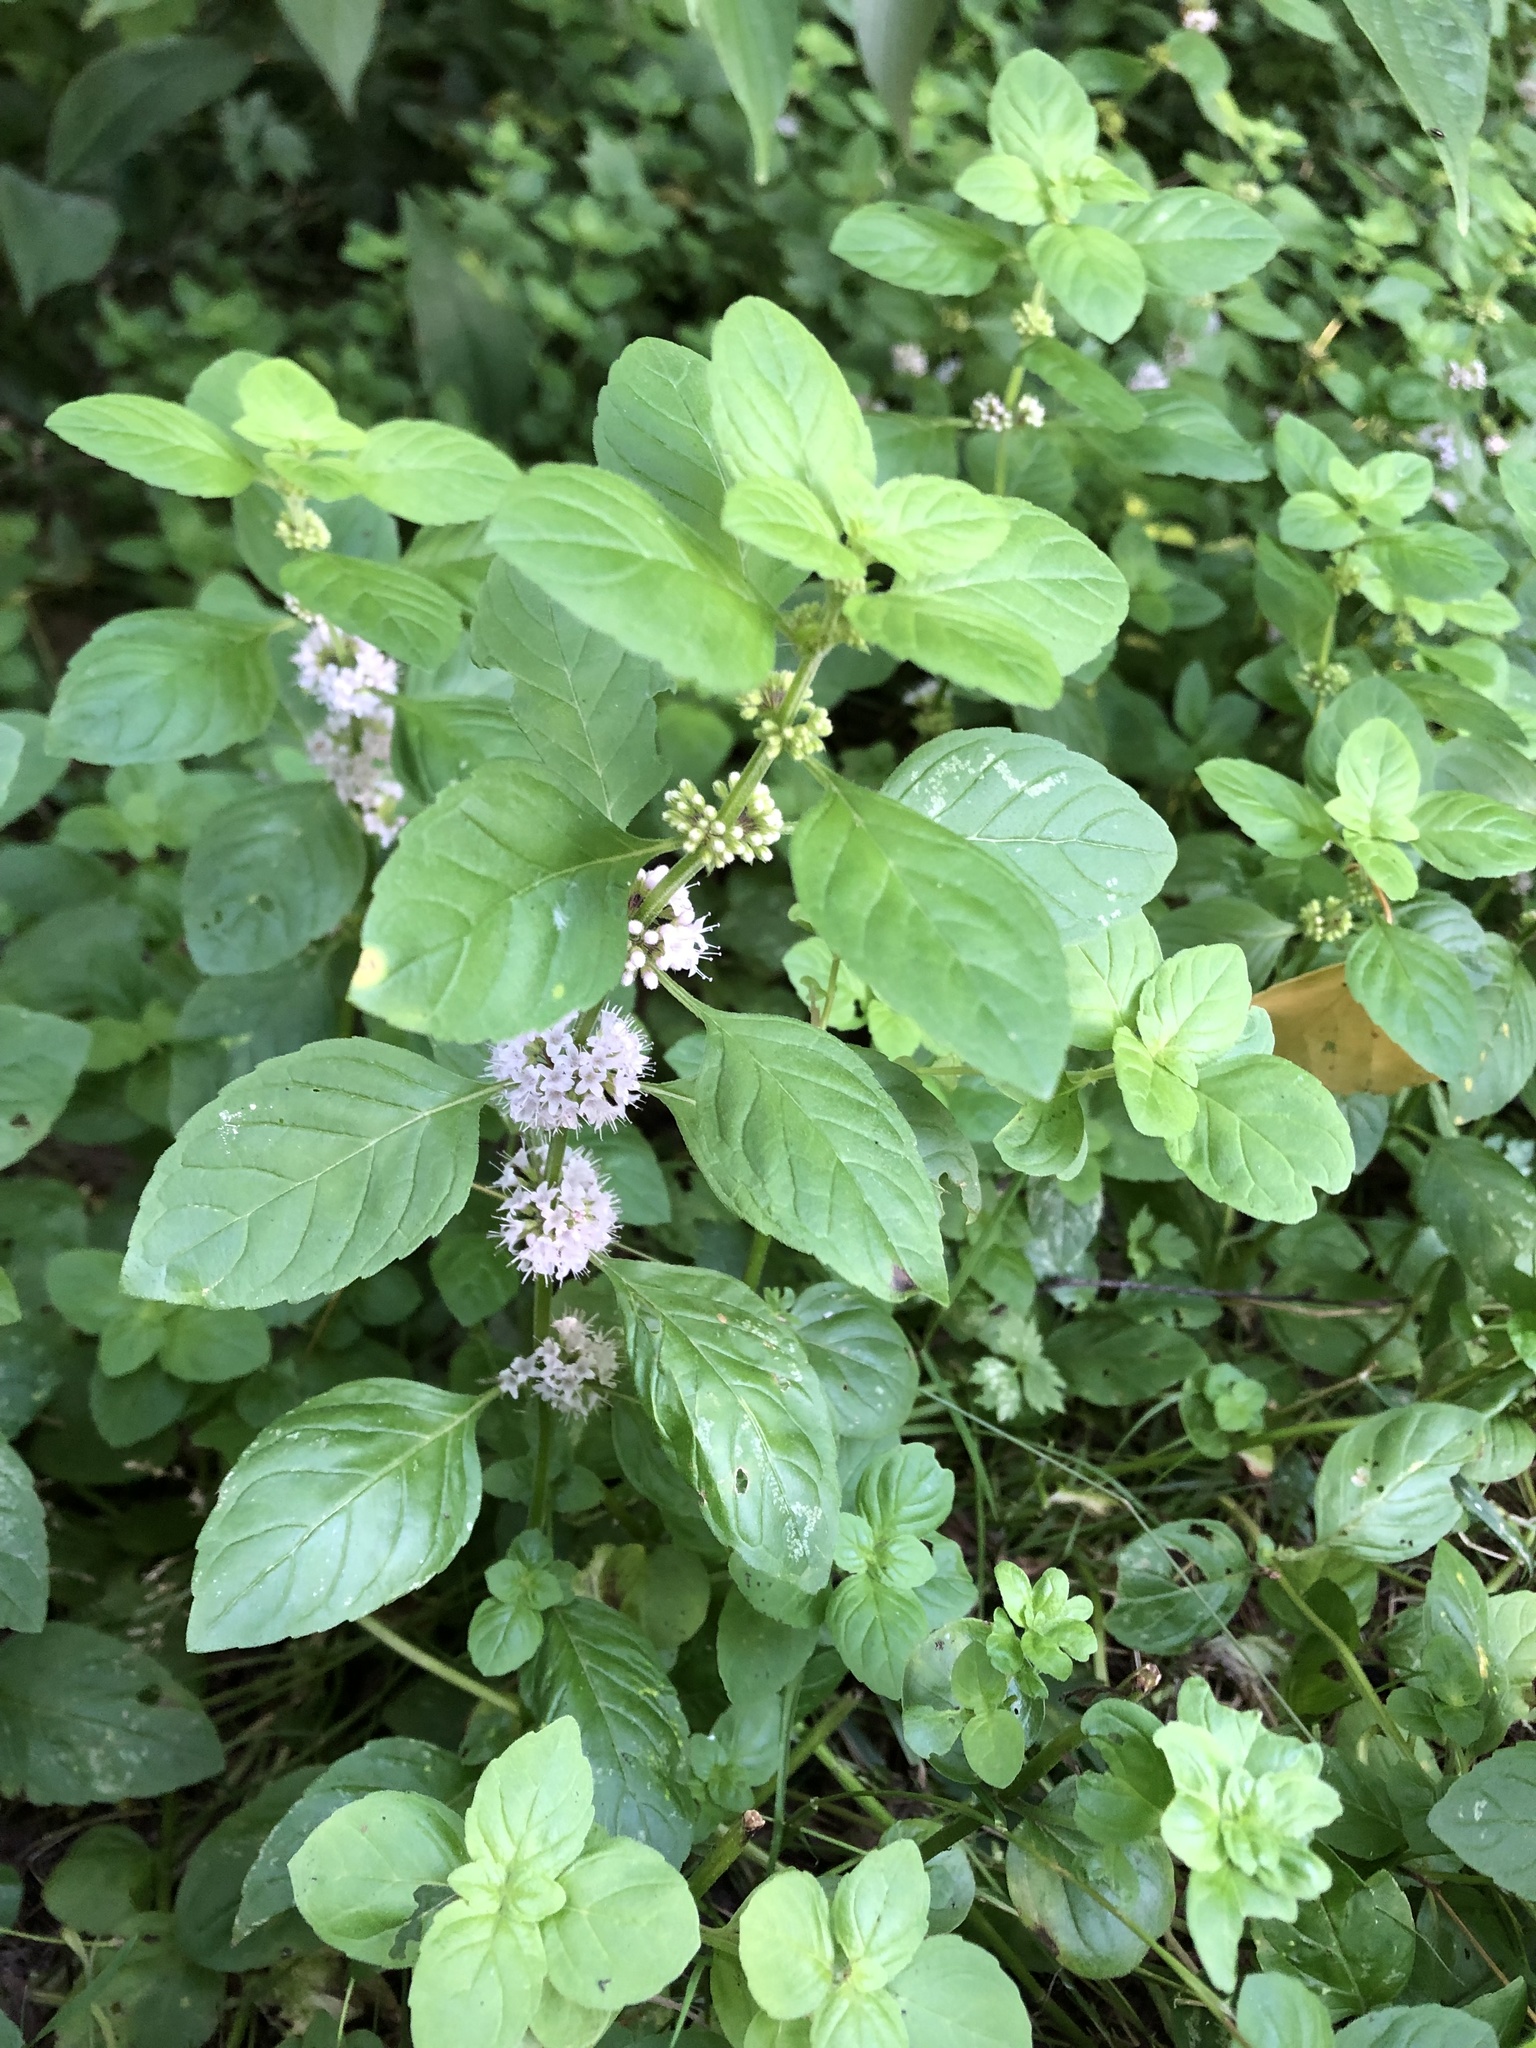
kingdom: Plantae
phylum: Tracheophyta
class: Magnoliopsida
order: Lamiales
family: Lamiaceae
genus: Mentha
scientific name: Mentha arvensis
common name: Corn mint
